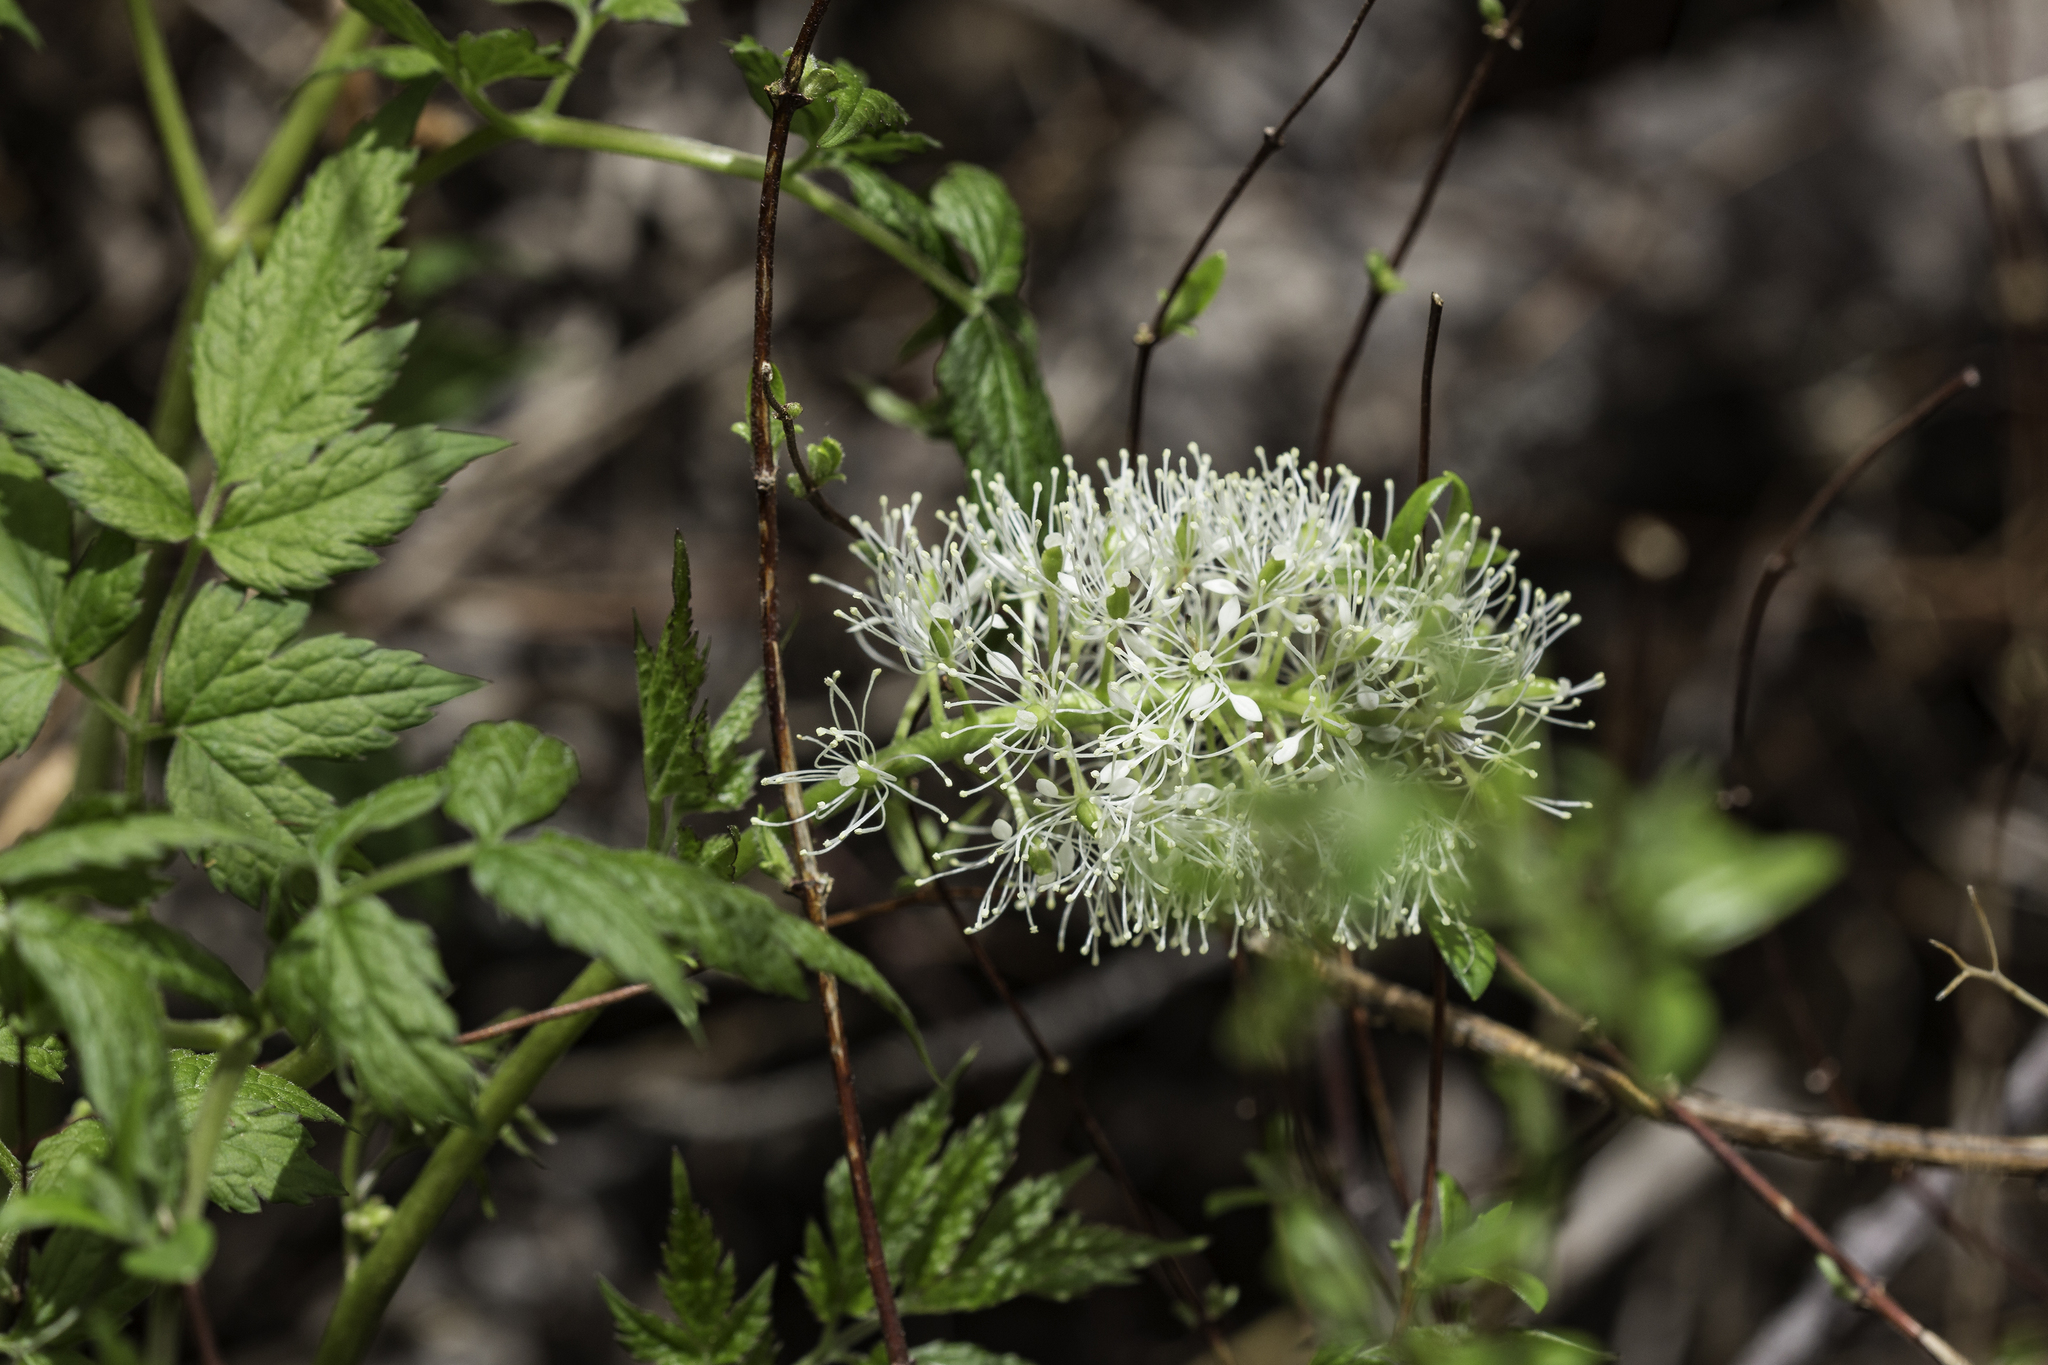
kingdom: Plantae
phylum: Tracheophyta
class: Magnoliopsida
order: Ranunculales
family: Ranunculaceae
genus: Actaea
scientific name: Actaea rubra
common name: Red baneberry
